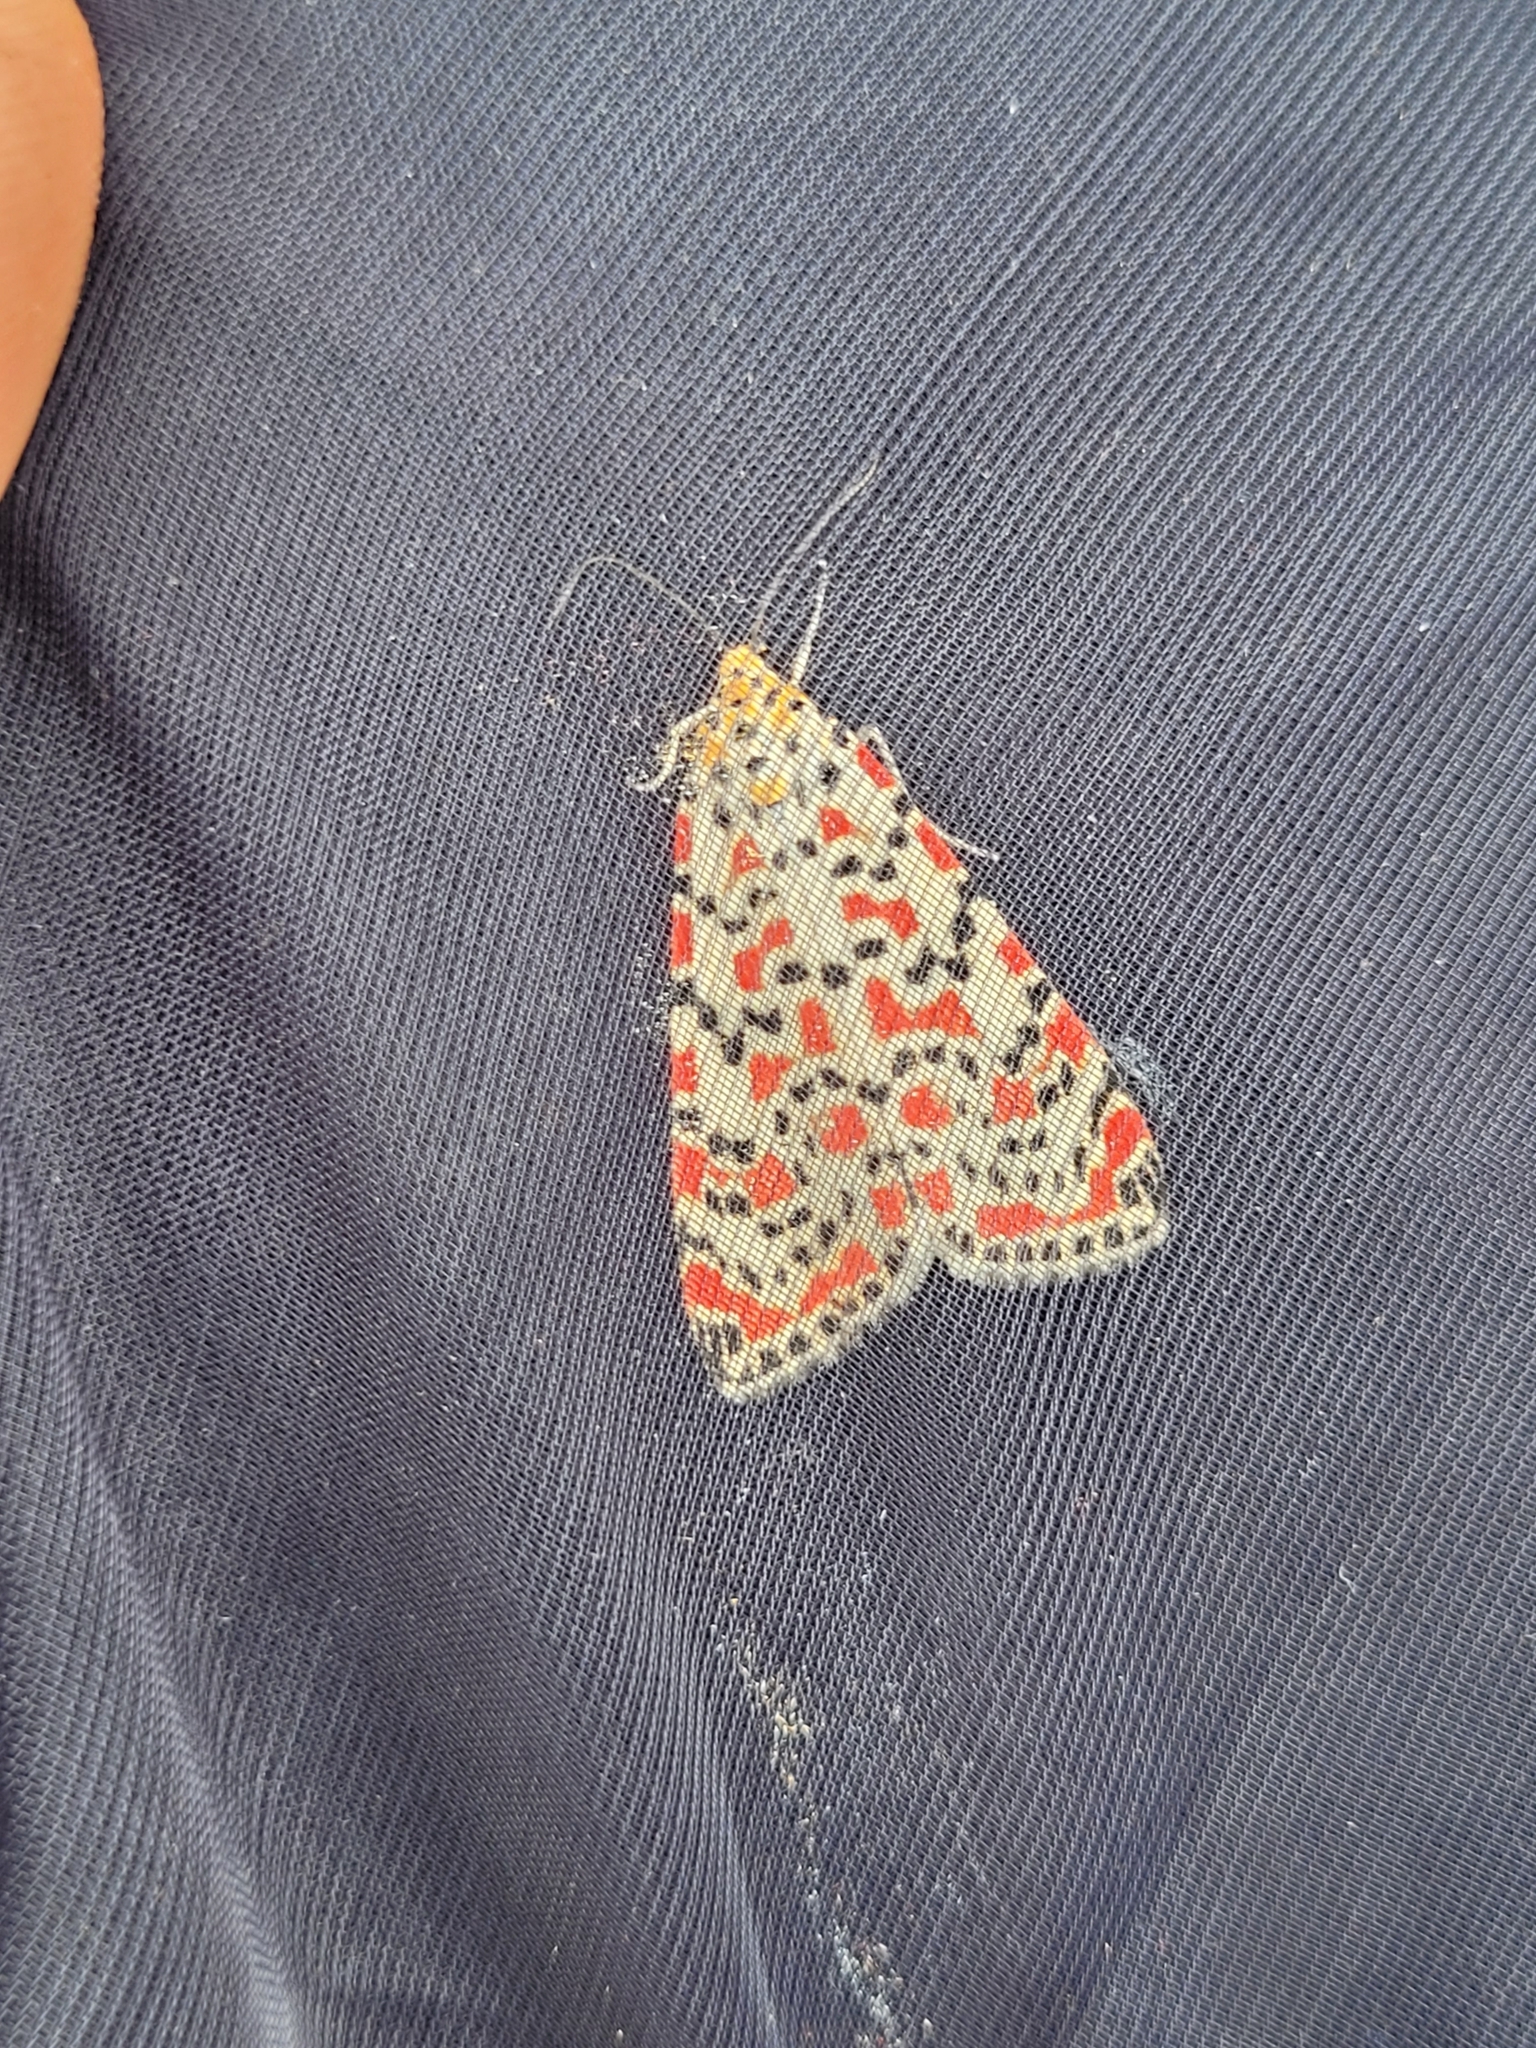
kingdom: Animalia
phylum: Arthropoda
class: Insecta
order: Lepidoptera
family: Erebidae
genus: Utetheisa
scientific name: Utetheisa pulchella
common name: Crimson speckled
